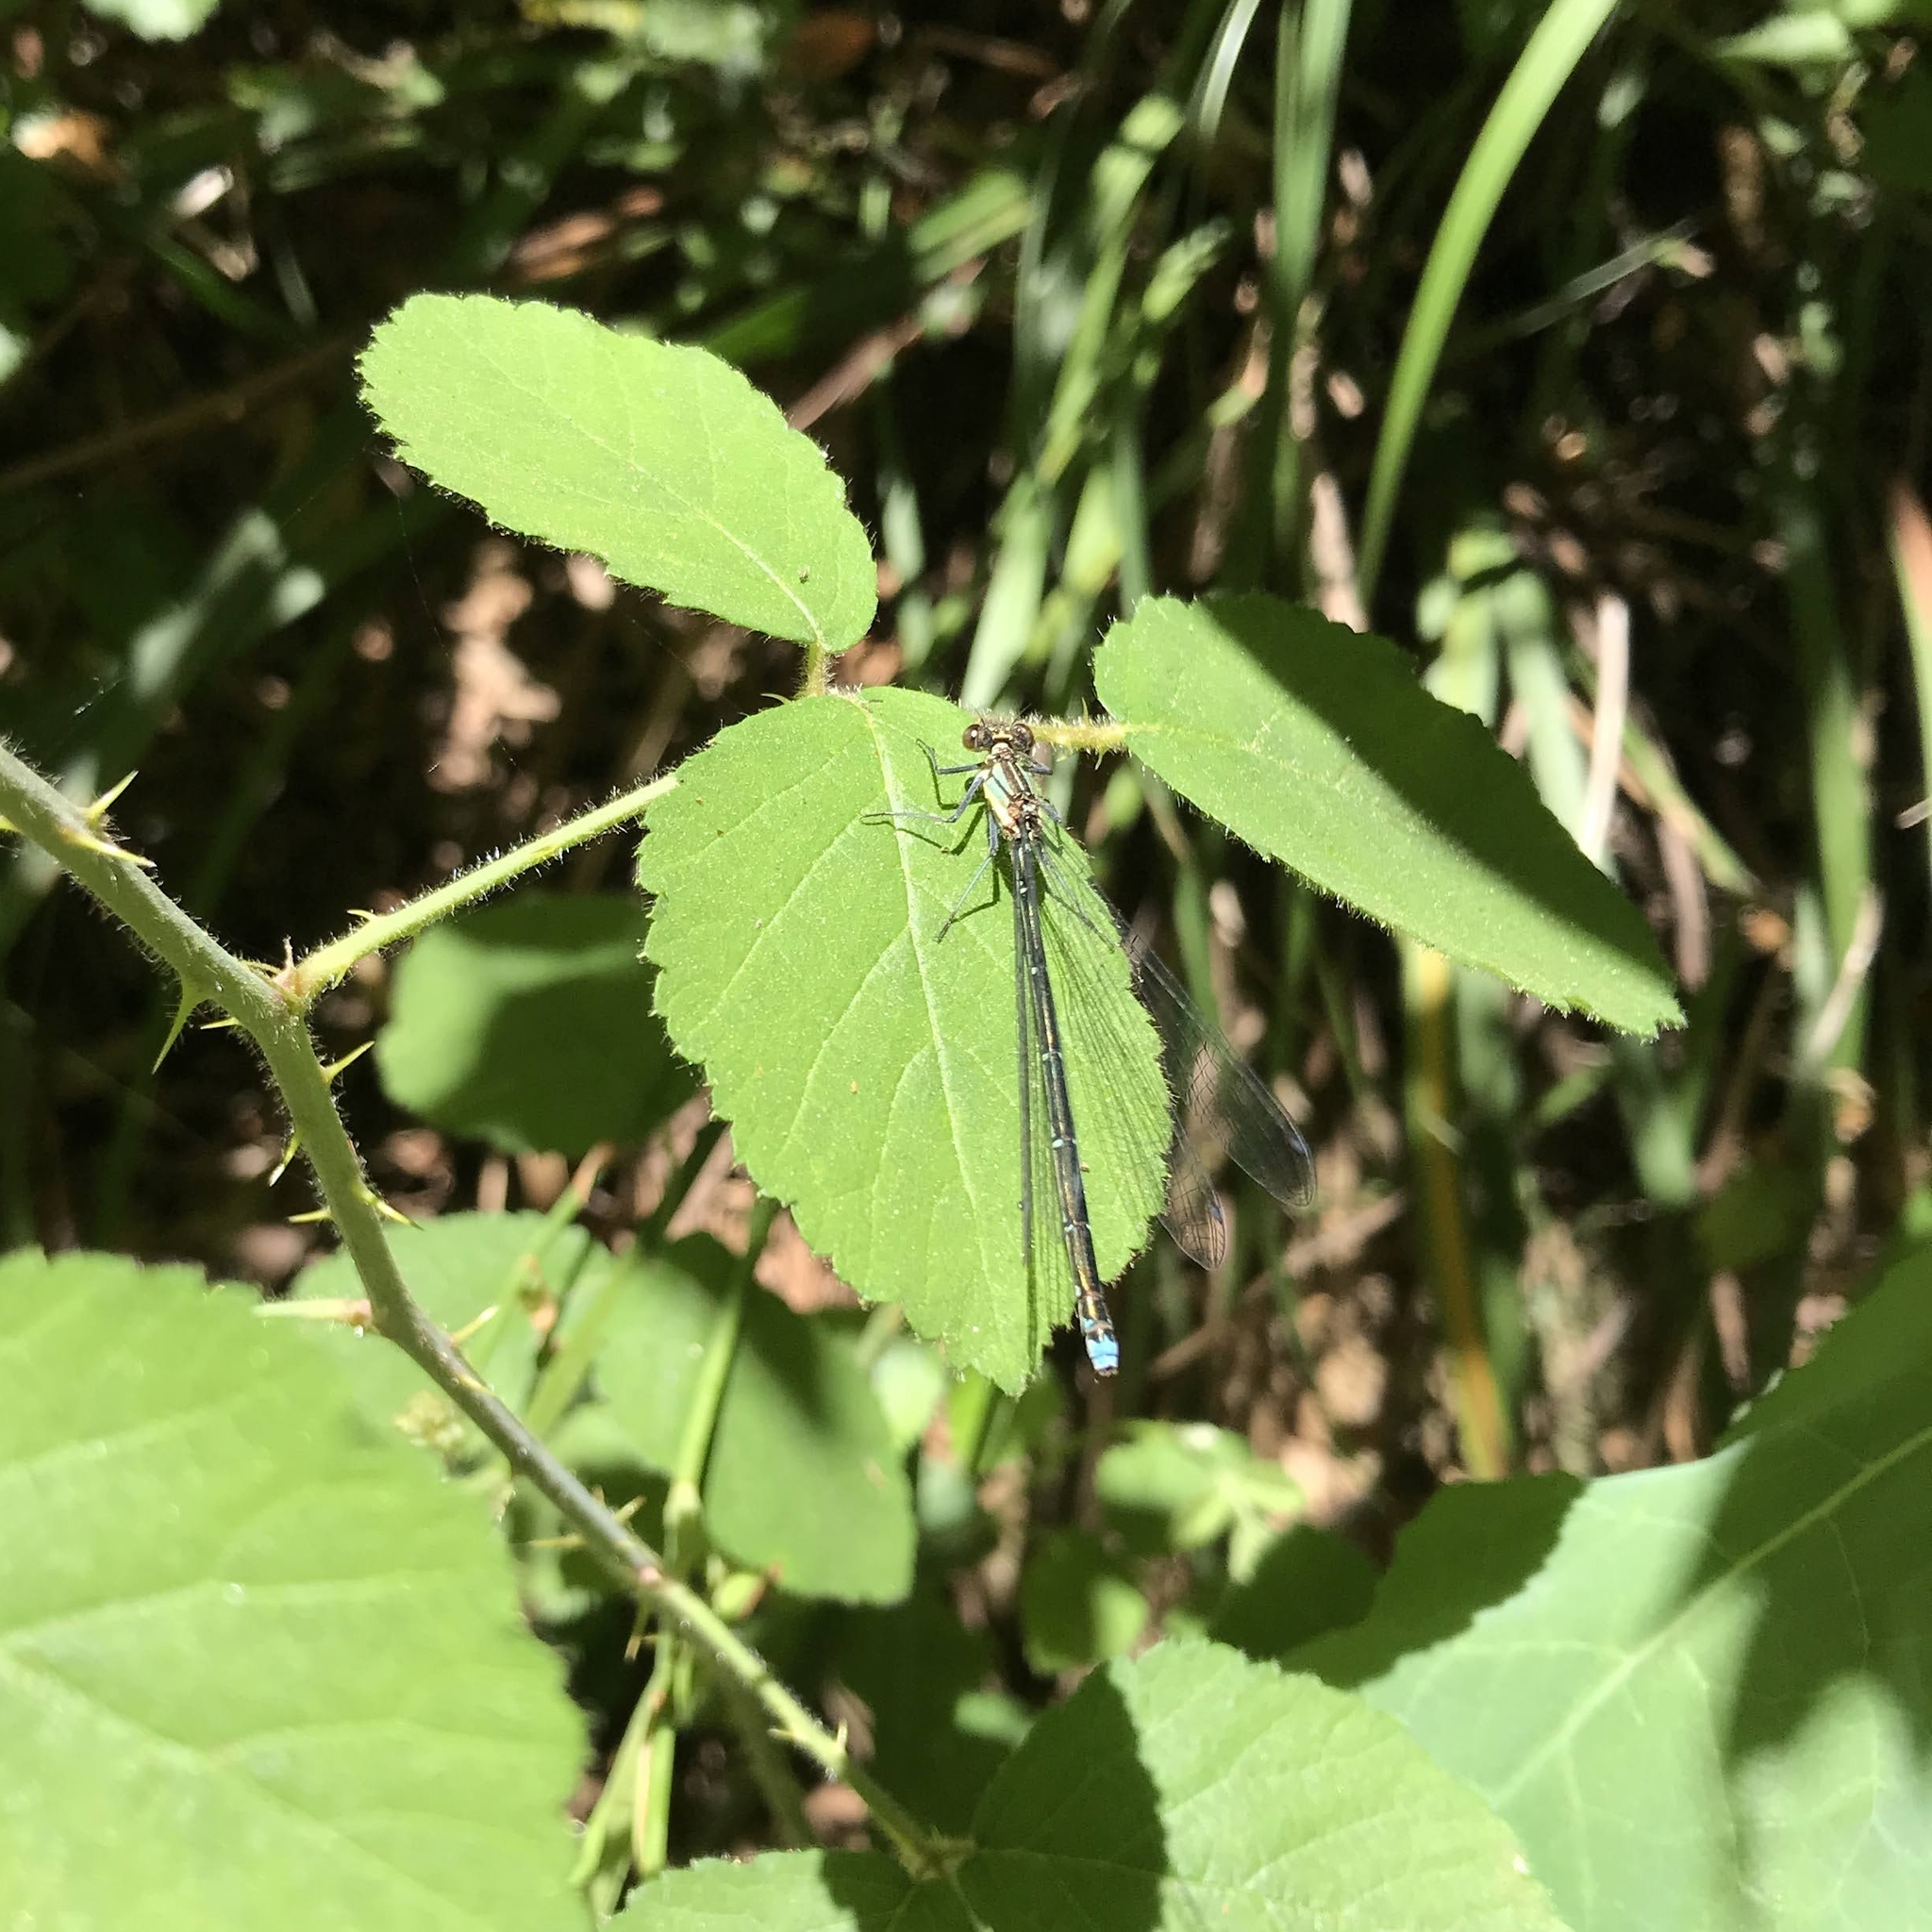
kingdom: Animalia
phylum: Arthropoda
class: Insecta
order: Odonata
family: Coenagrionidae
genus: Antiagrion
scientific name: Antiagrion grinbergsi
